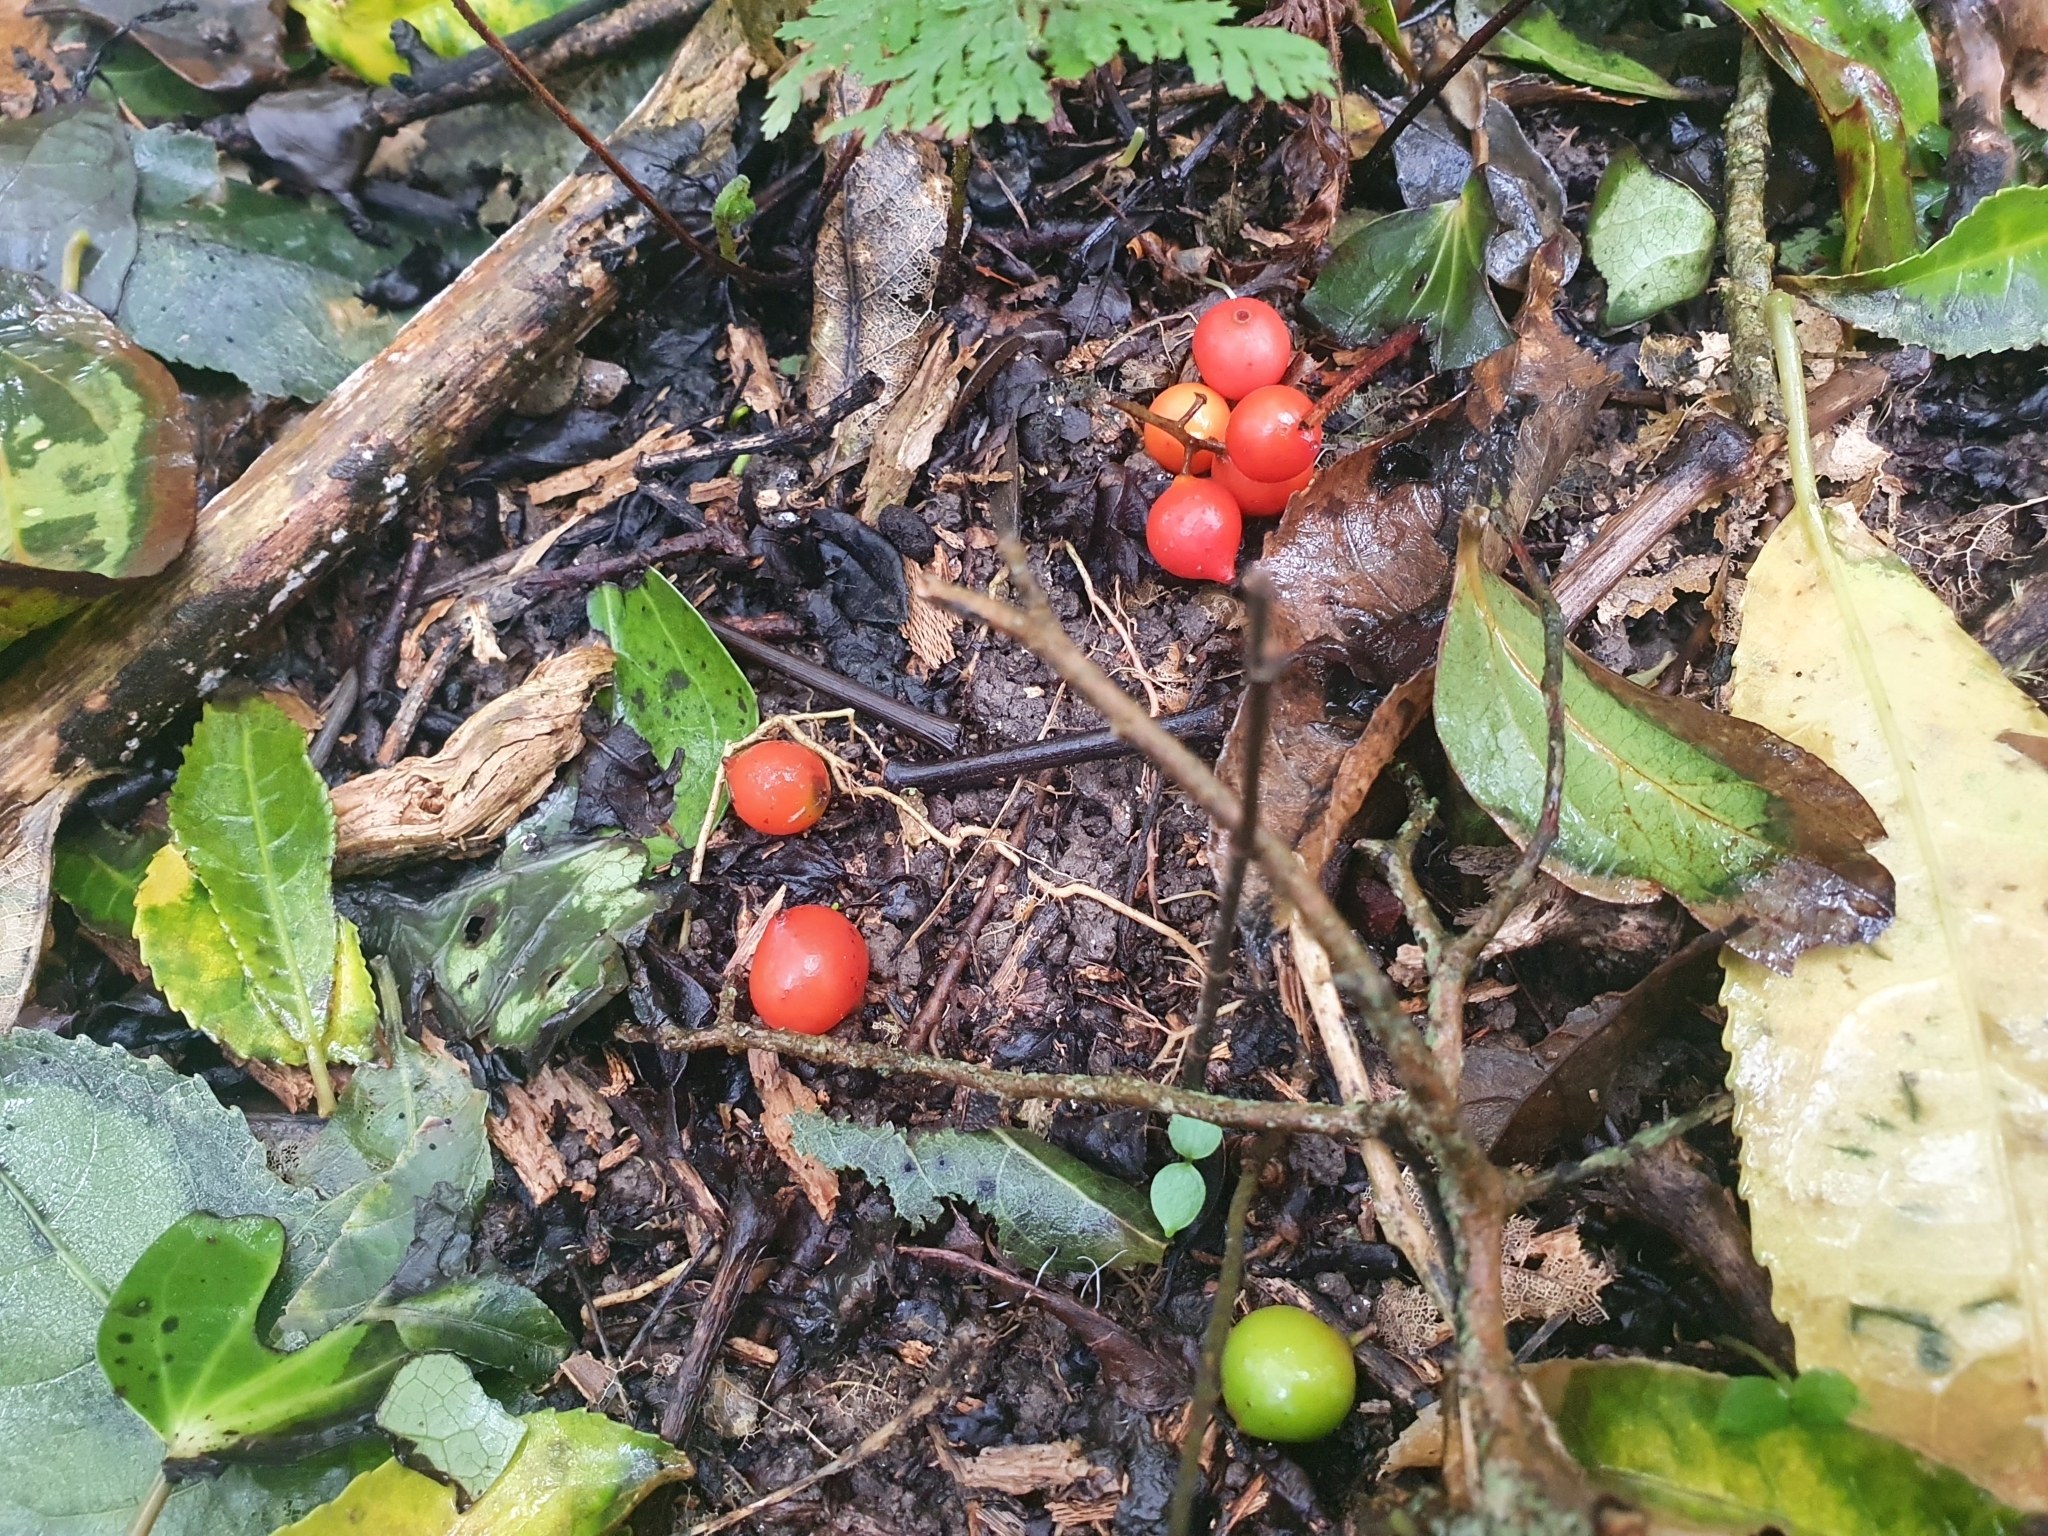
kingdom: Plantae
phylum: Tracheophyta
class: Liliopsida
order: Liliales
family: Ripogonaceae
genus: Ripogonum
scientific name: Ripogonum scandens
